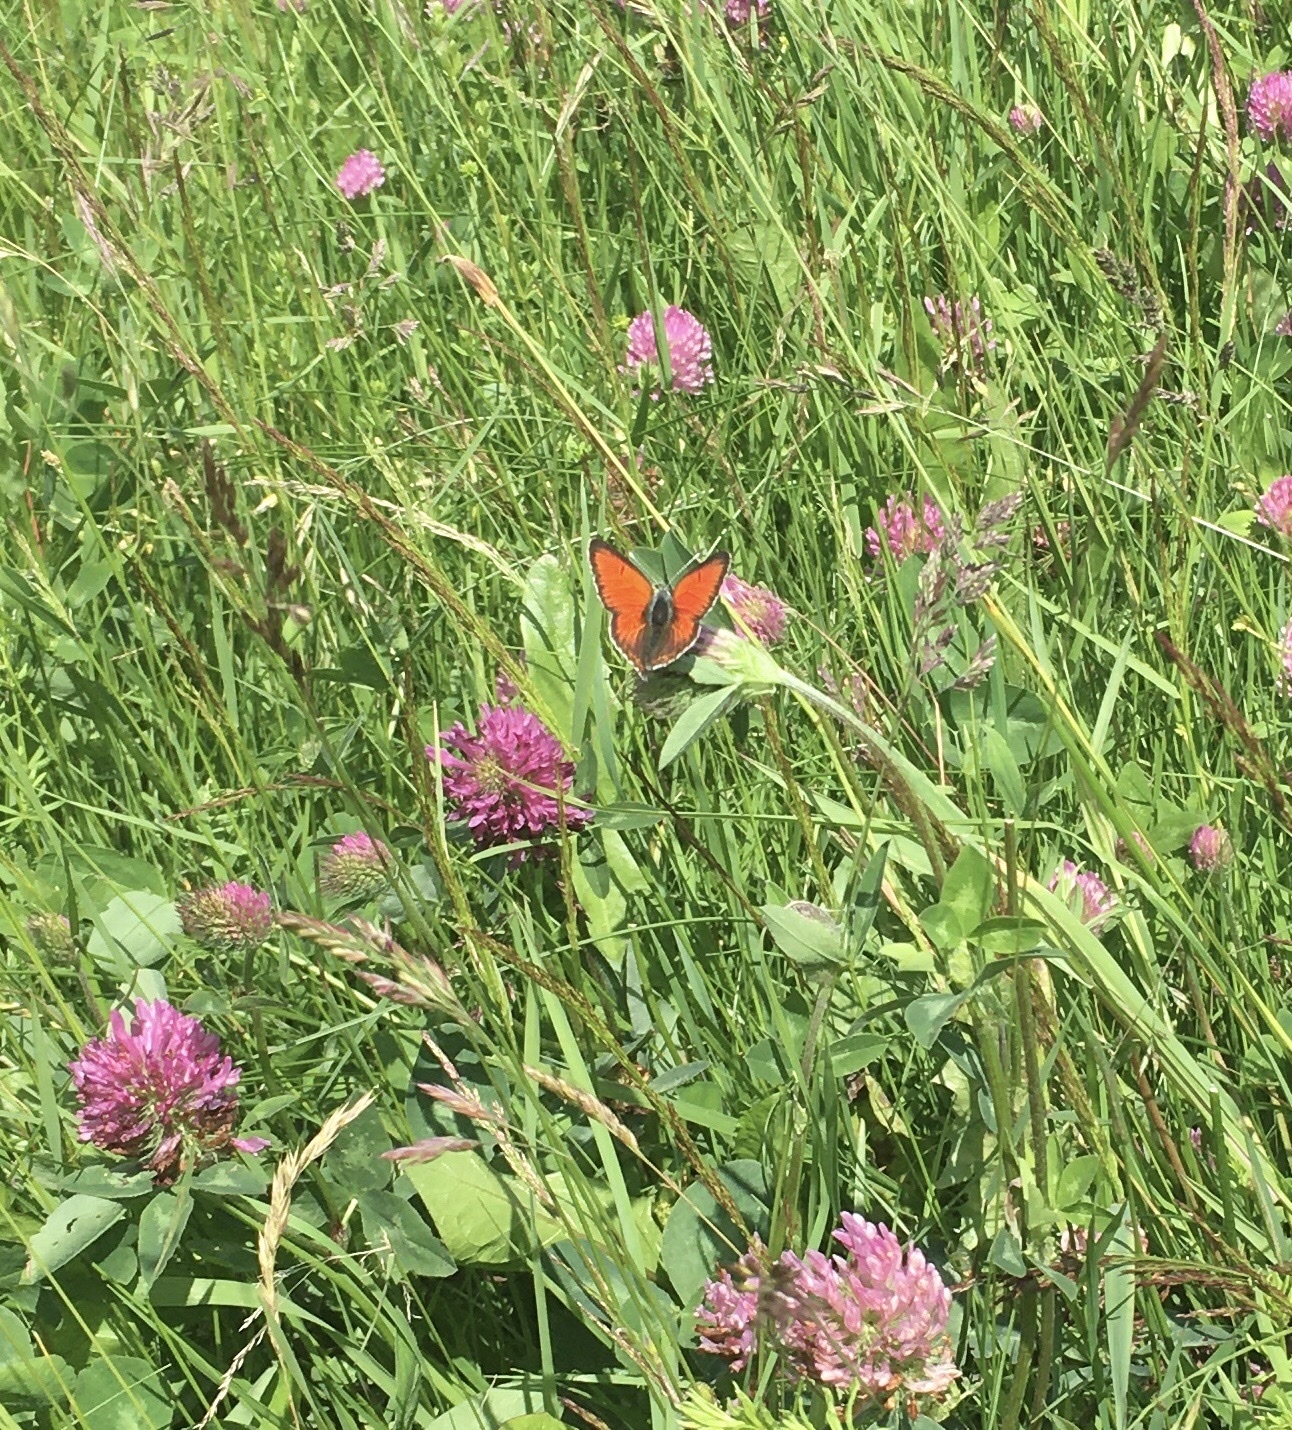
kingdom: Animalia
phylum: Arthropoda
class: Insecta
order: Lepidoptera
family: Lycaenidae
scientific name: Lycaenidae
